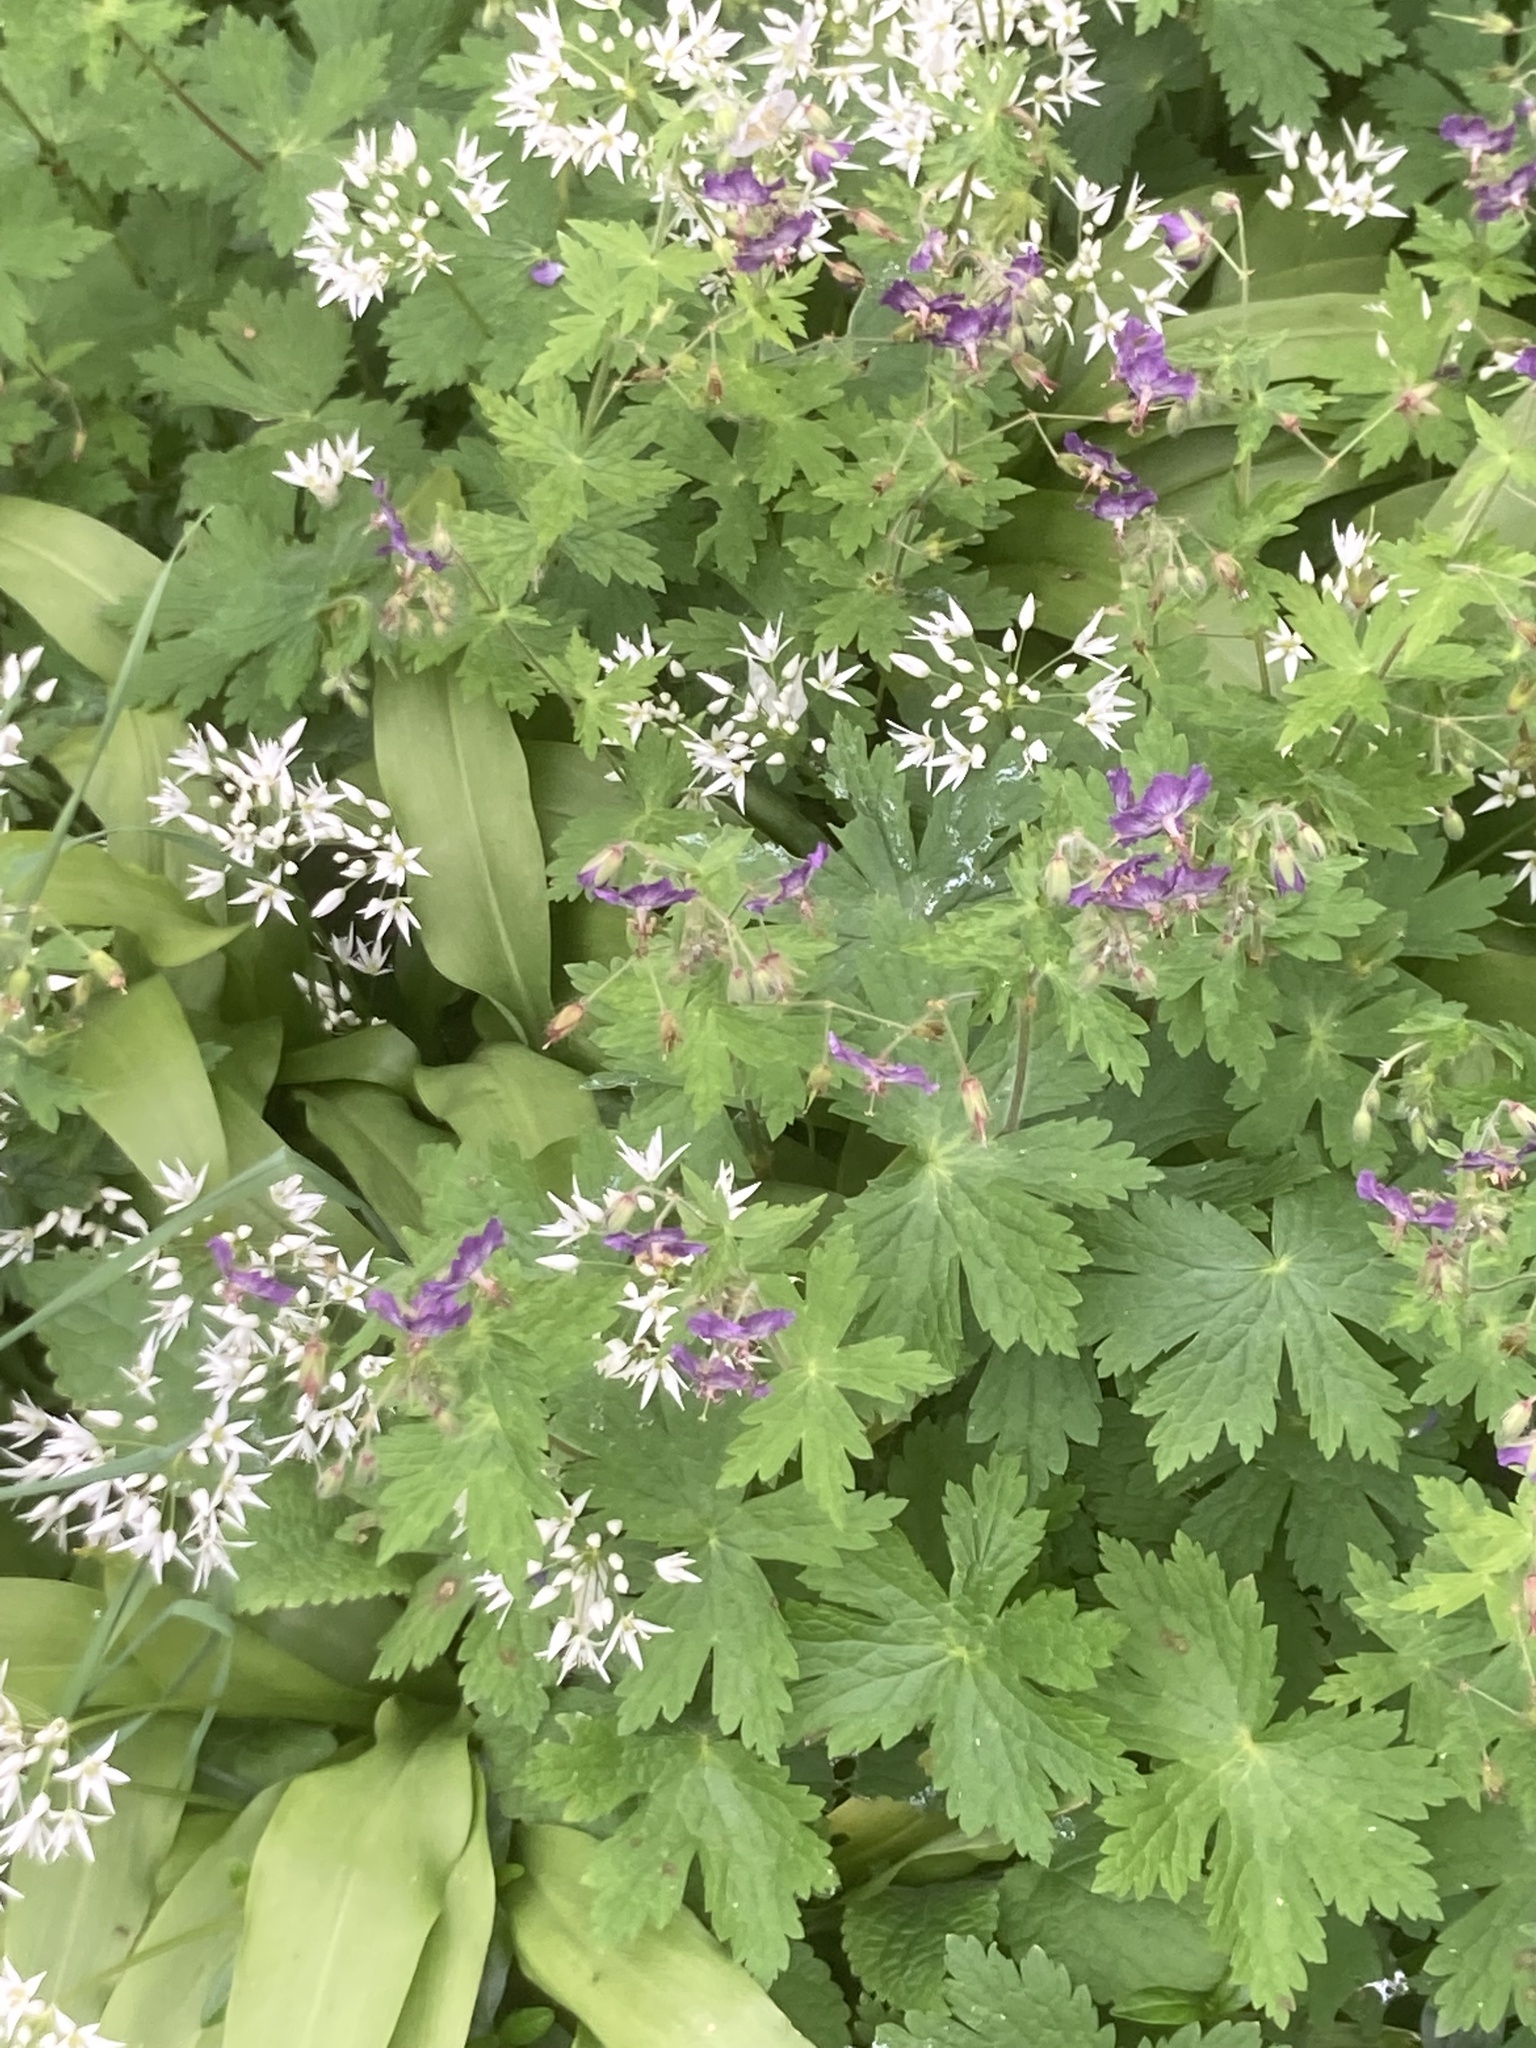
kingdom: Plantae
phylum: Tracheophyta
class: Magnoliopsida
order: Geraniales
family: Geraniaceae
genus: Geranium
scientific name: Geranium phaeum
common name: Dusky crane's-bill
